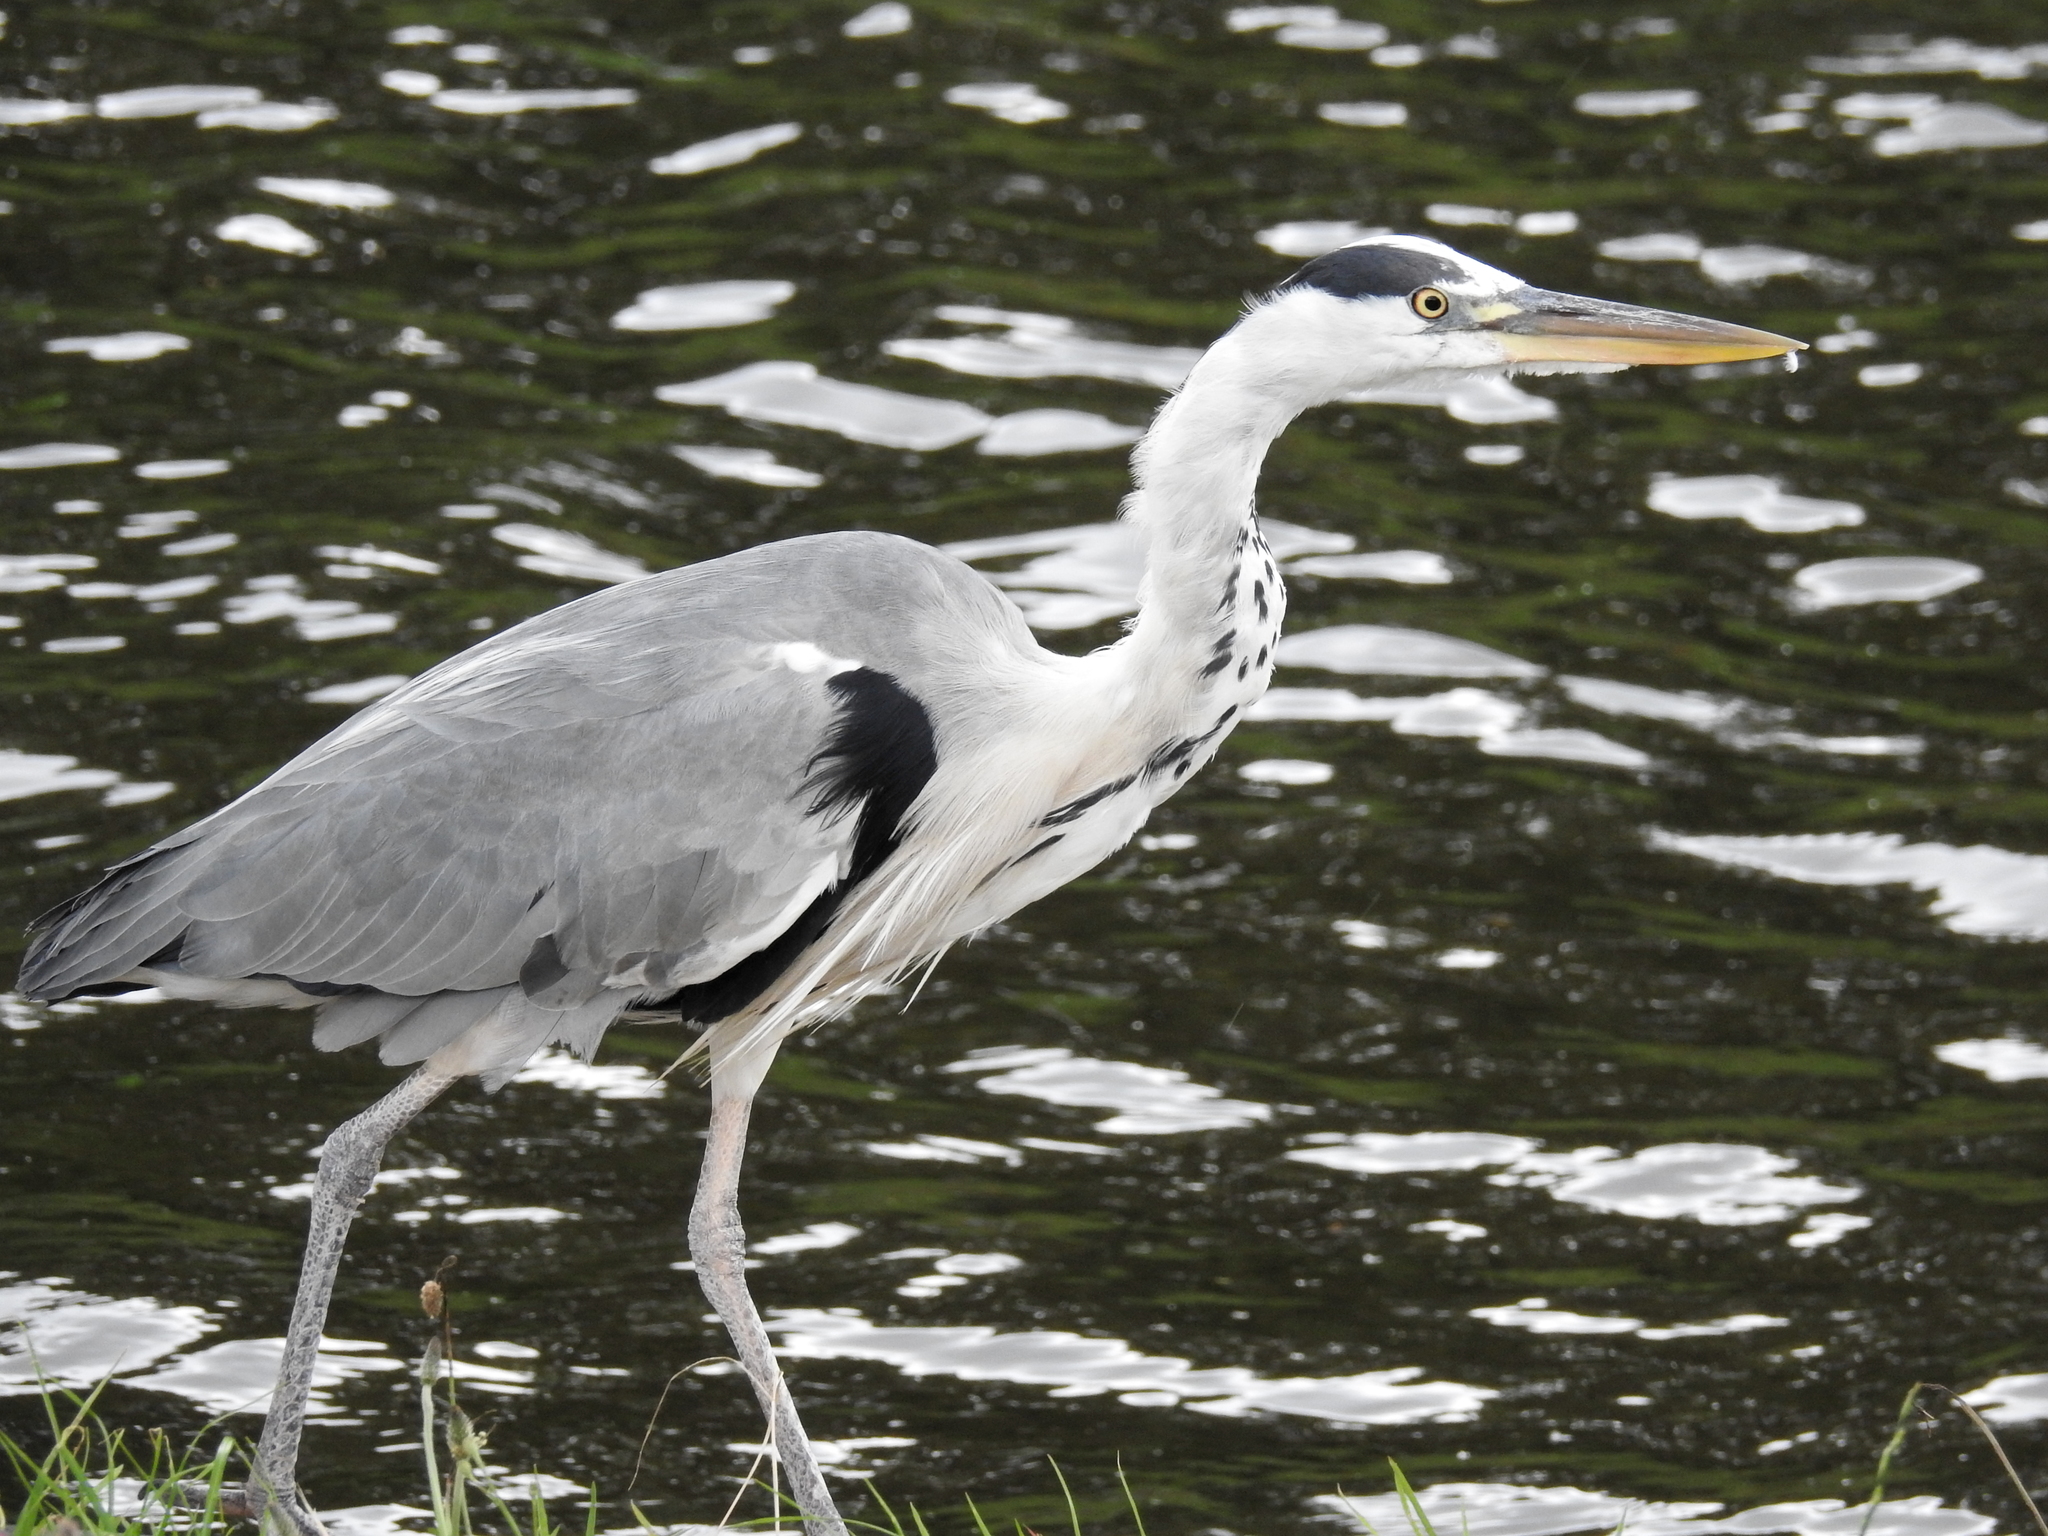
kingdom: Animalia
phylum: Chordata
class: Aves
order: Pelecaniformes
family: Ardeidae
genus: Ardea
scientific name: Ardea cinerea
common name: Grey heron
